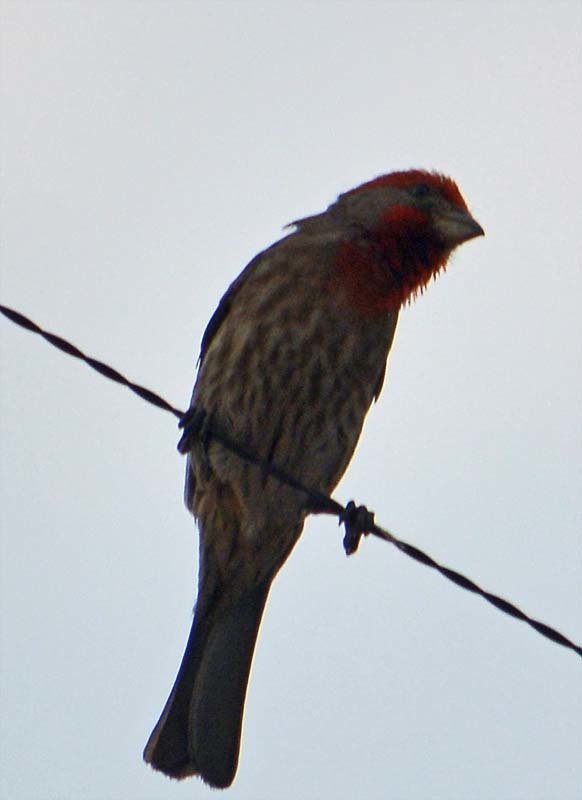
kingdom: Animalia
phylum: Chordata
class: Aves
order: Passeriformes
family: Fringillidae
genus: Haemorhous
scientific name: Haemorhous mexicanus
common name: House finch
